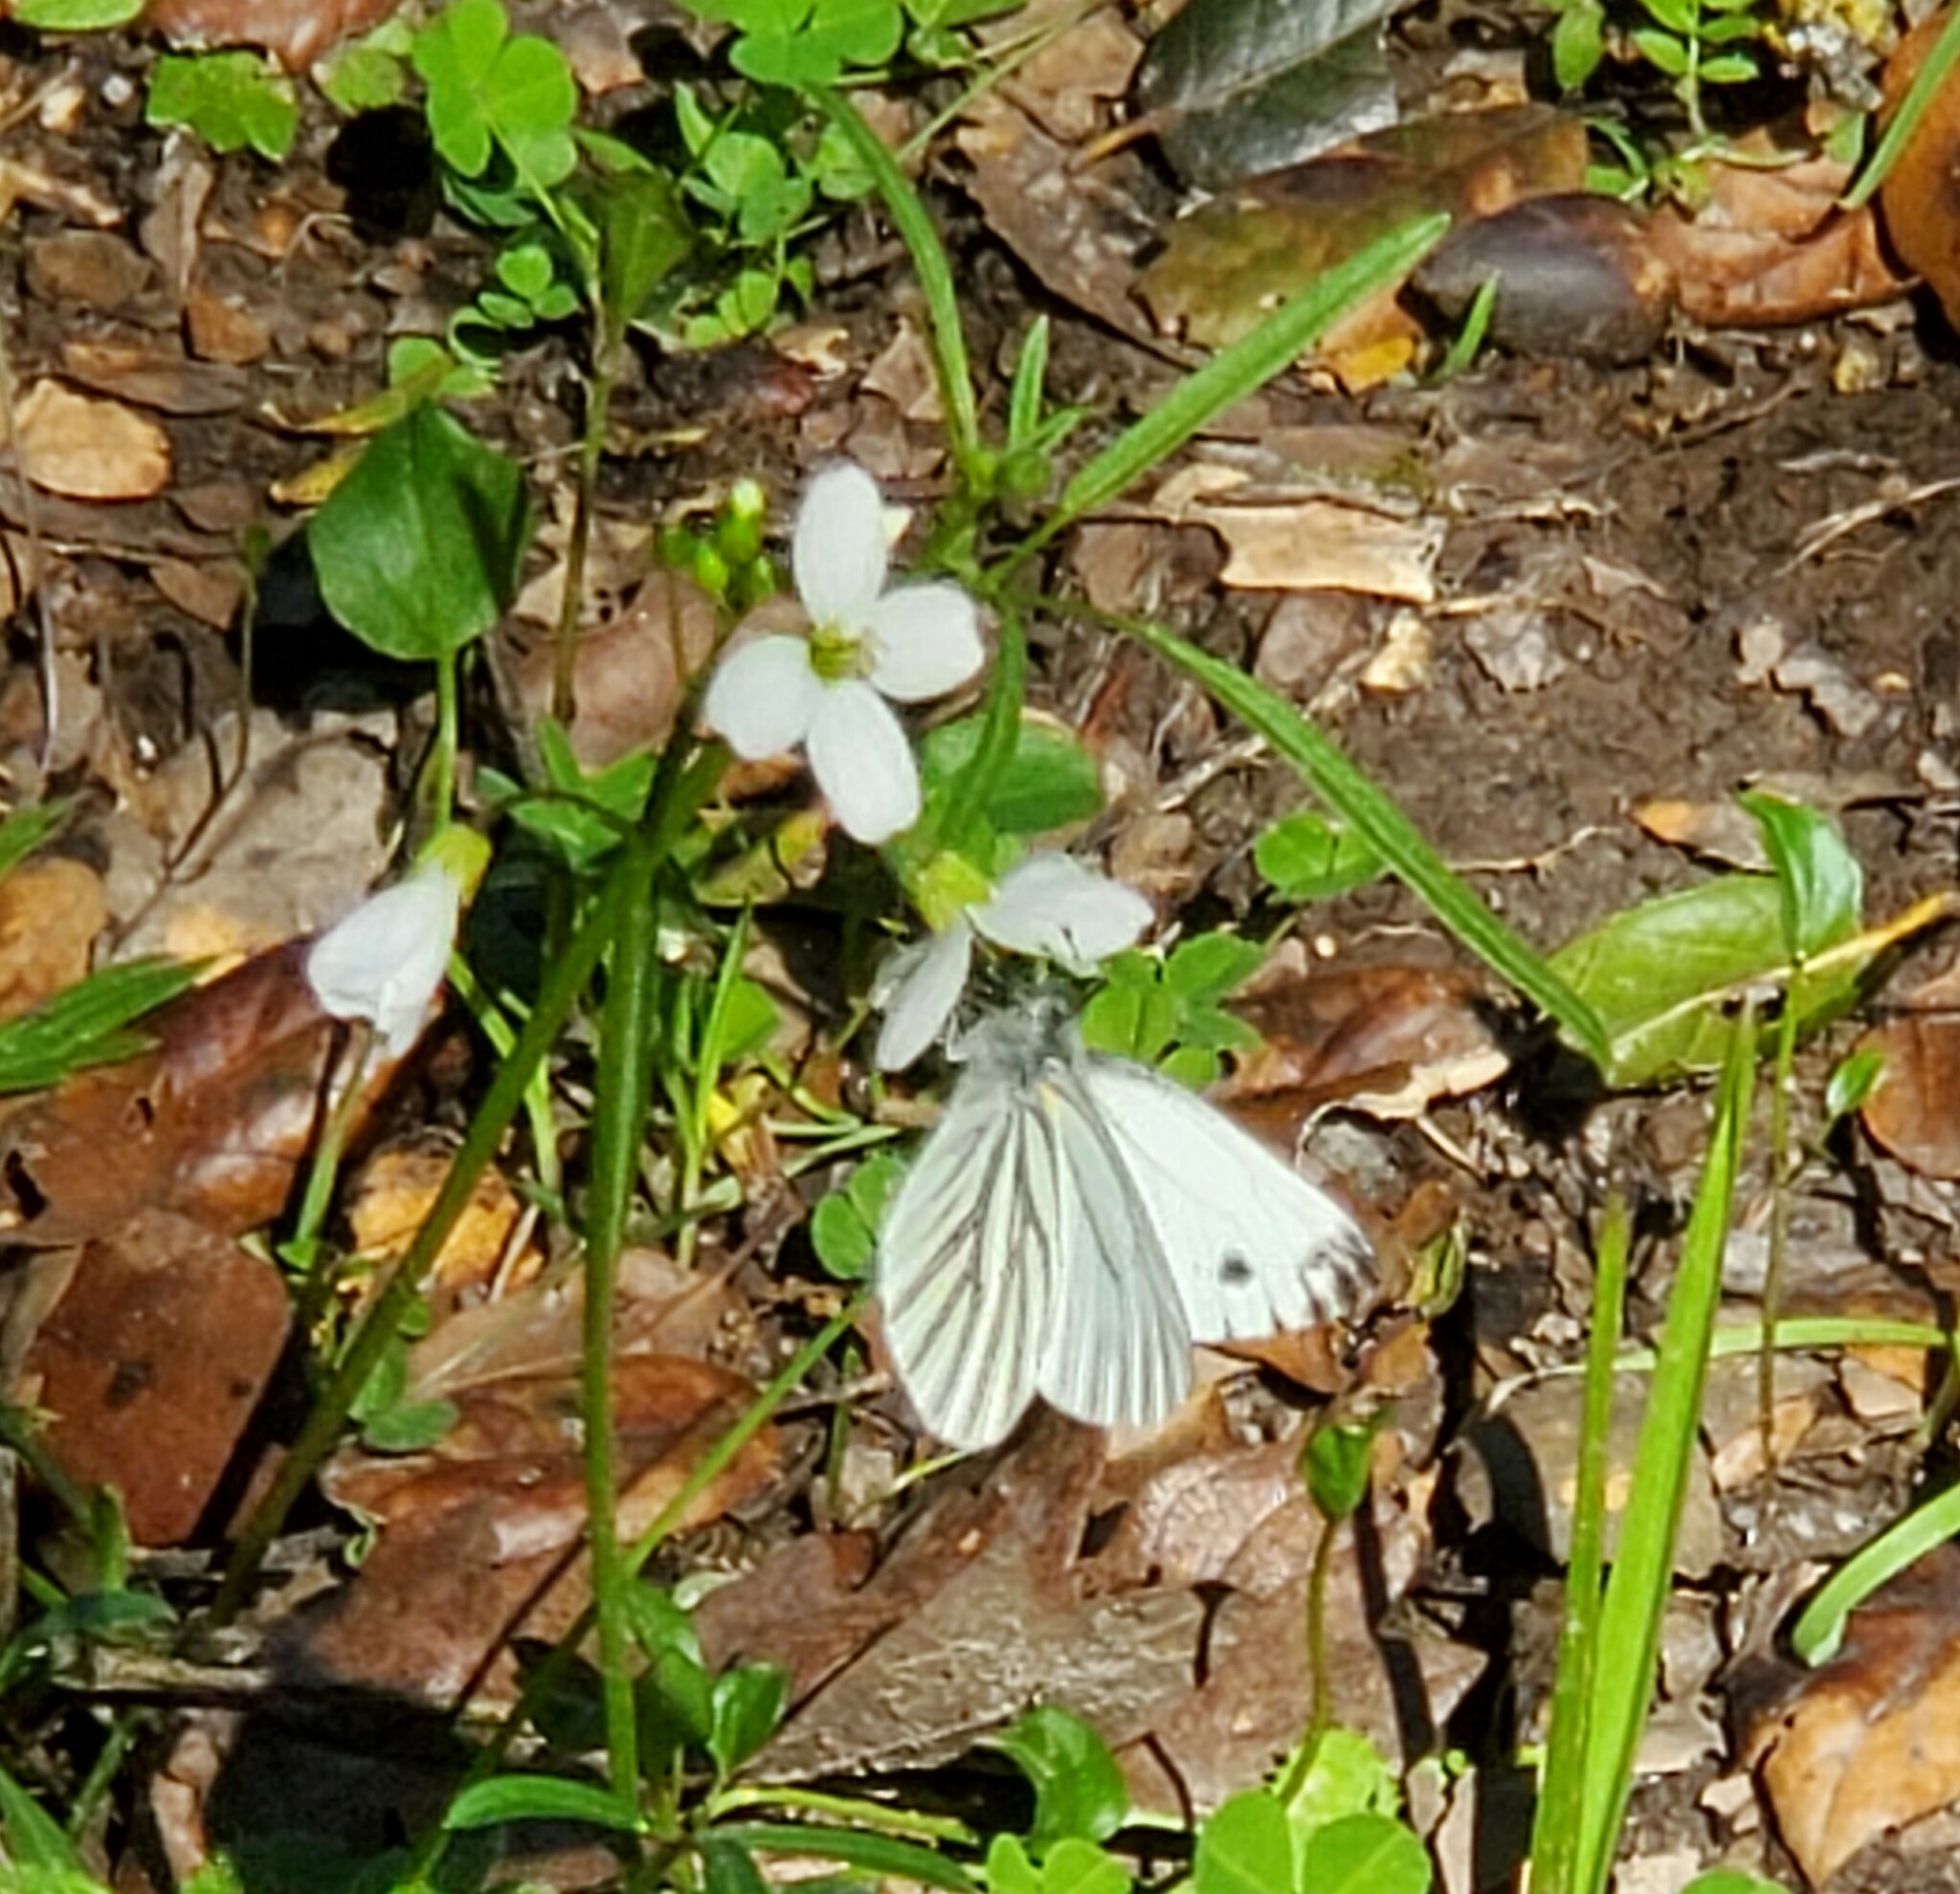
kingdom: Animalia
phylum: Arthropoda
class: Insecta
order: Lepidoptera
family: Pieridae
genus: Pieris
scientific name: Pieris marginalis
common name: Margined white
